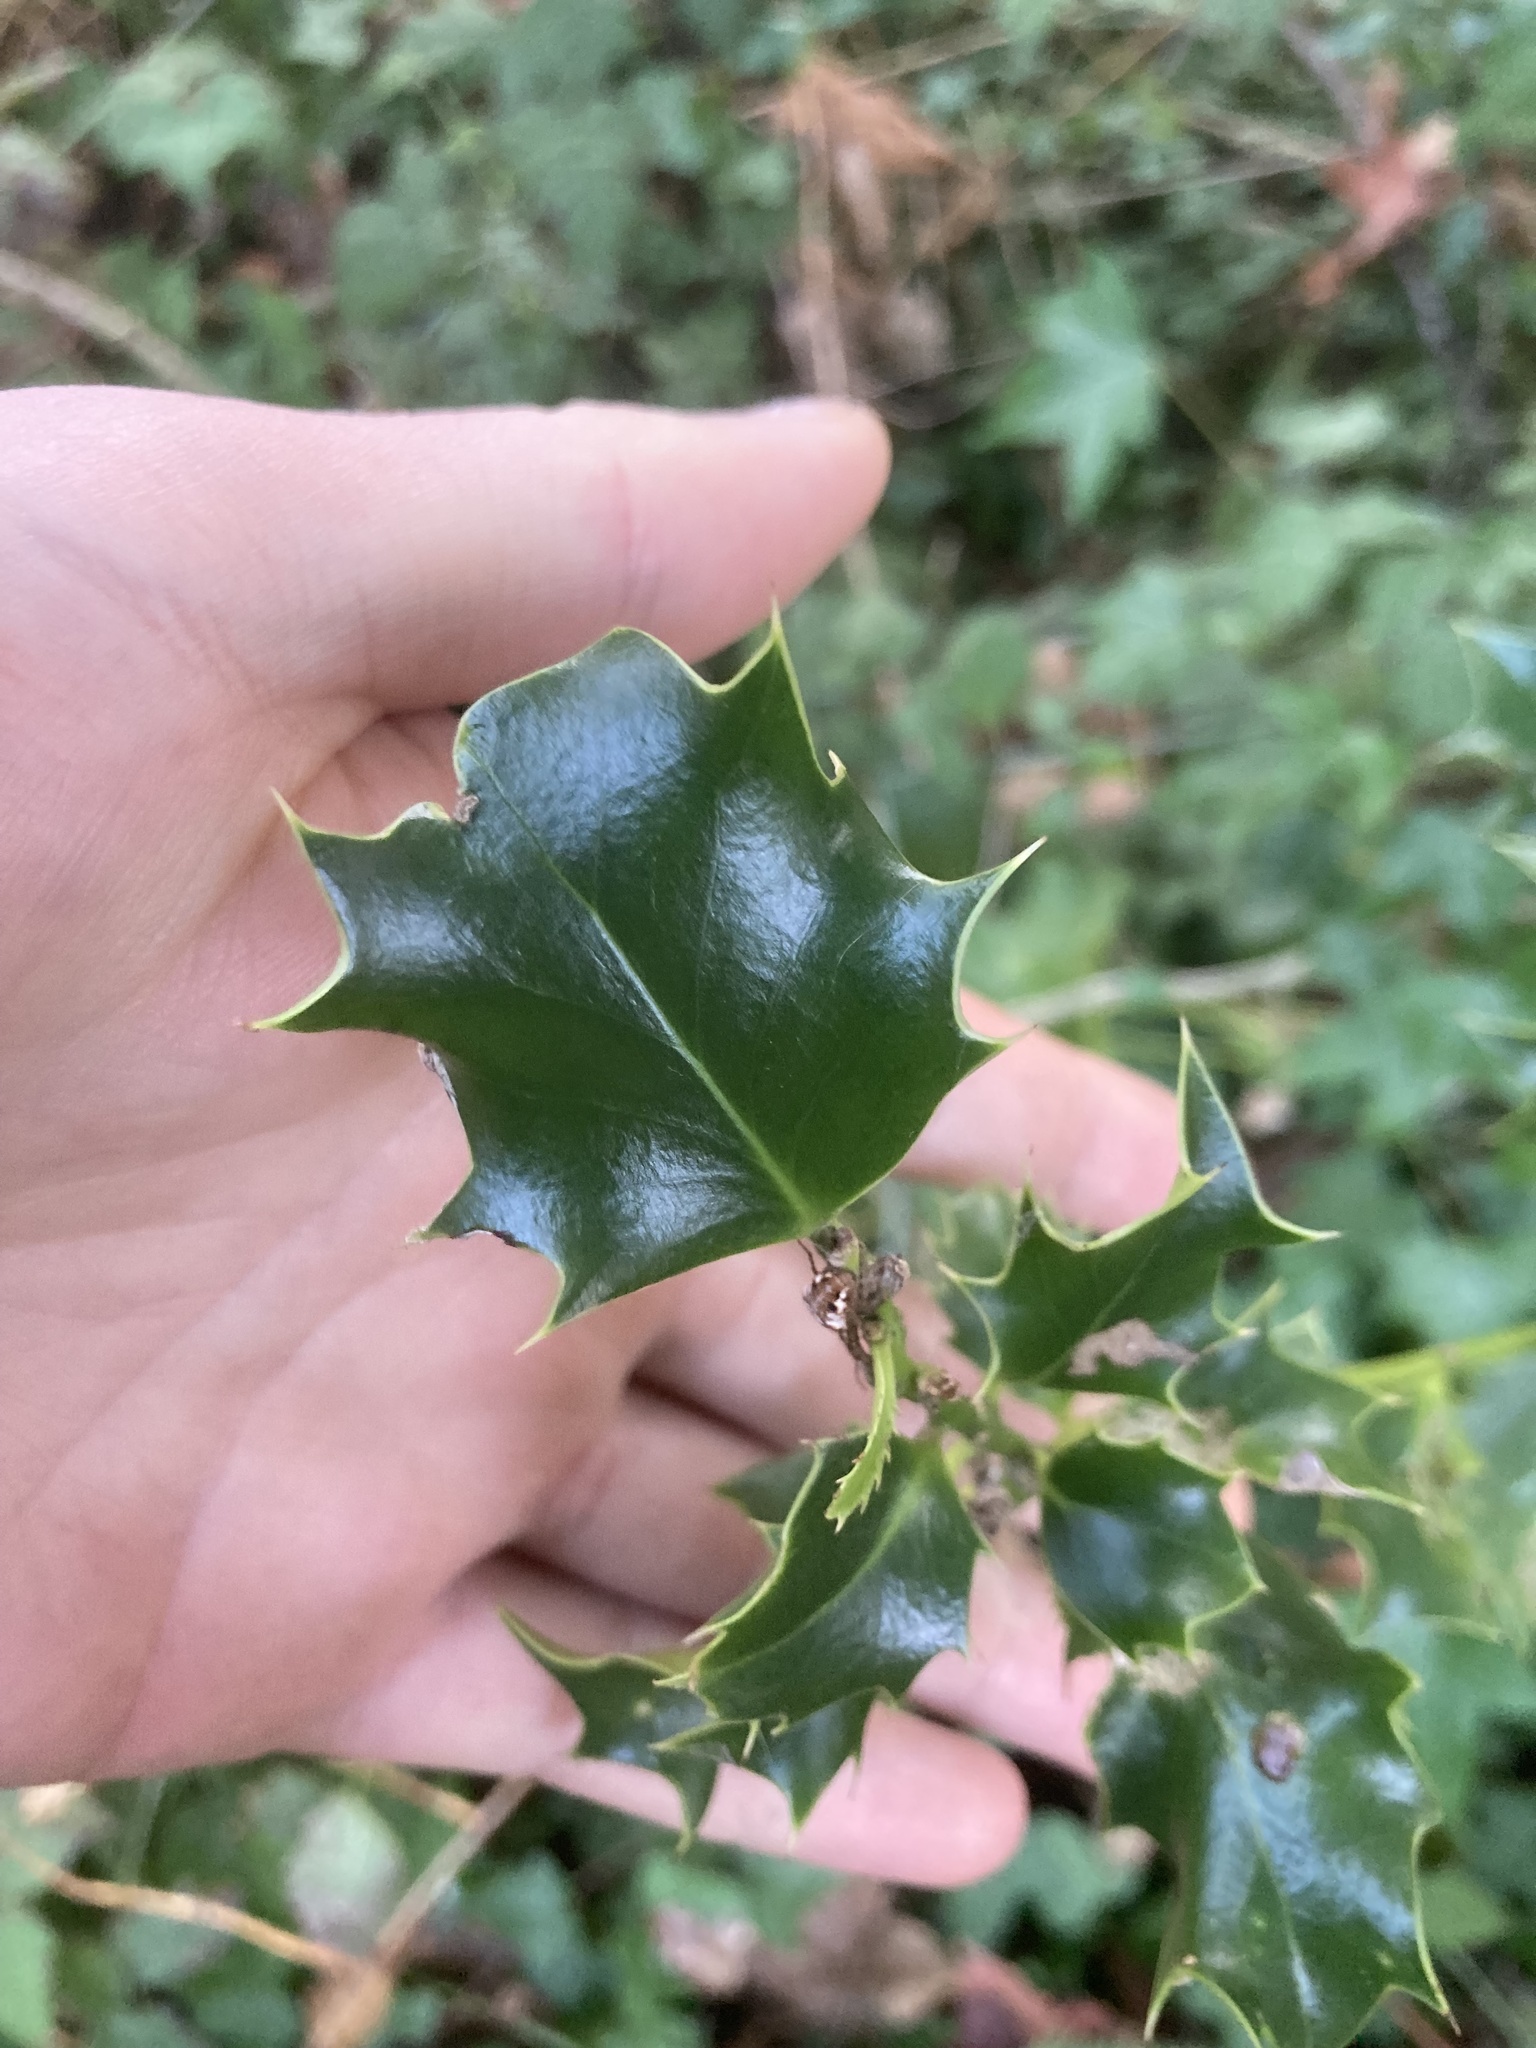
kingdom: Plantae
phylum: Tracheophyta
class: Magnoliopsida
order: Aquifoliales
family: Aquifoliaceae
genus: Ilex
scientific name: Ilex aquifolium
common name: English holly
